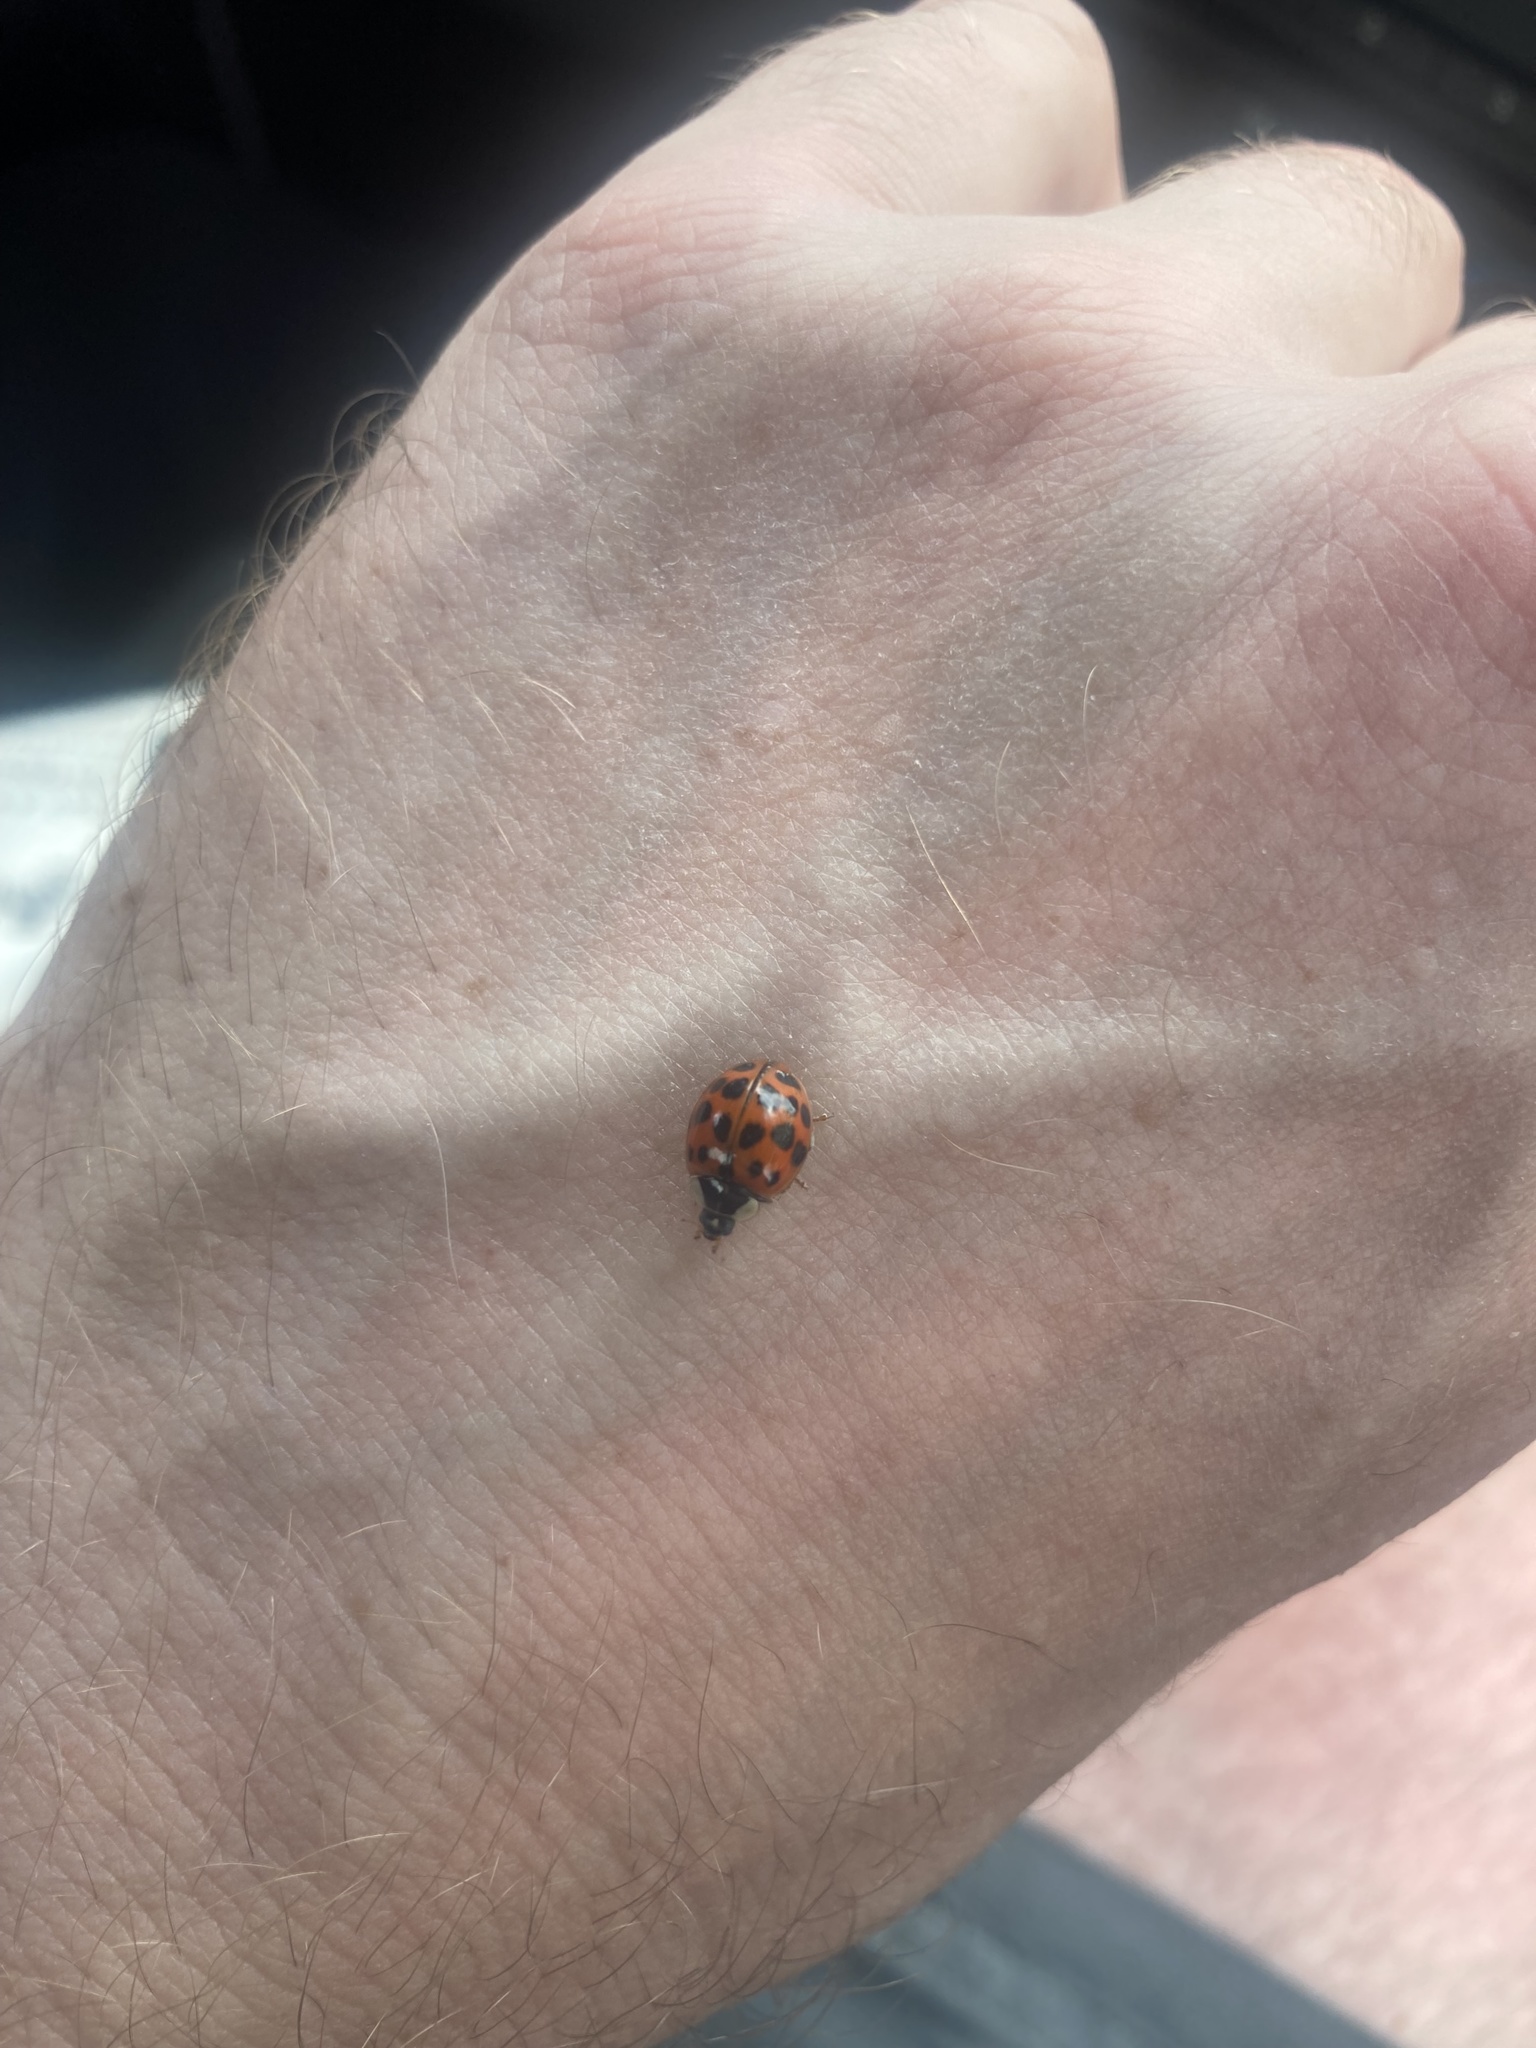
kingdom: Animalia
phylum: Arthropoda
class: Insecta
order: Coleoptera
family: Coccinellidae
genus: Harmonia
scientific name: Harmonia axyridis
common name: Harlequin ladybird
